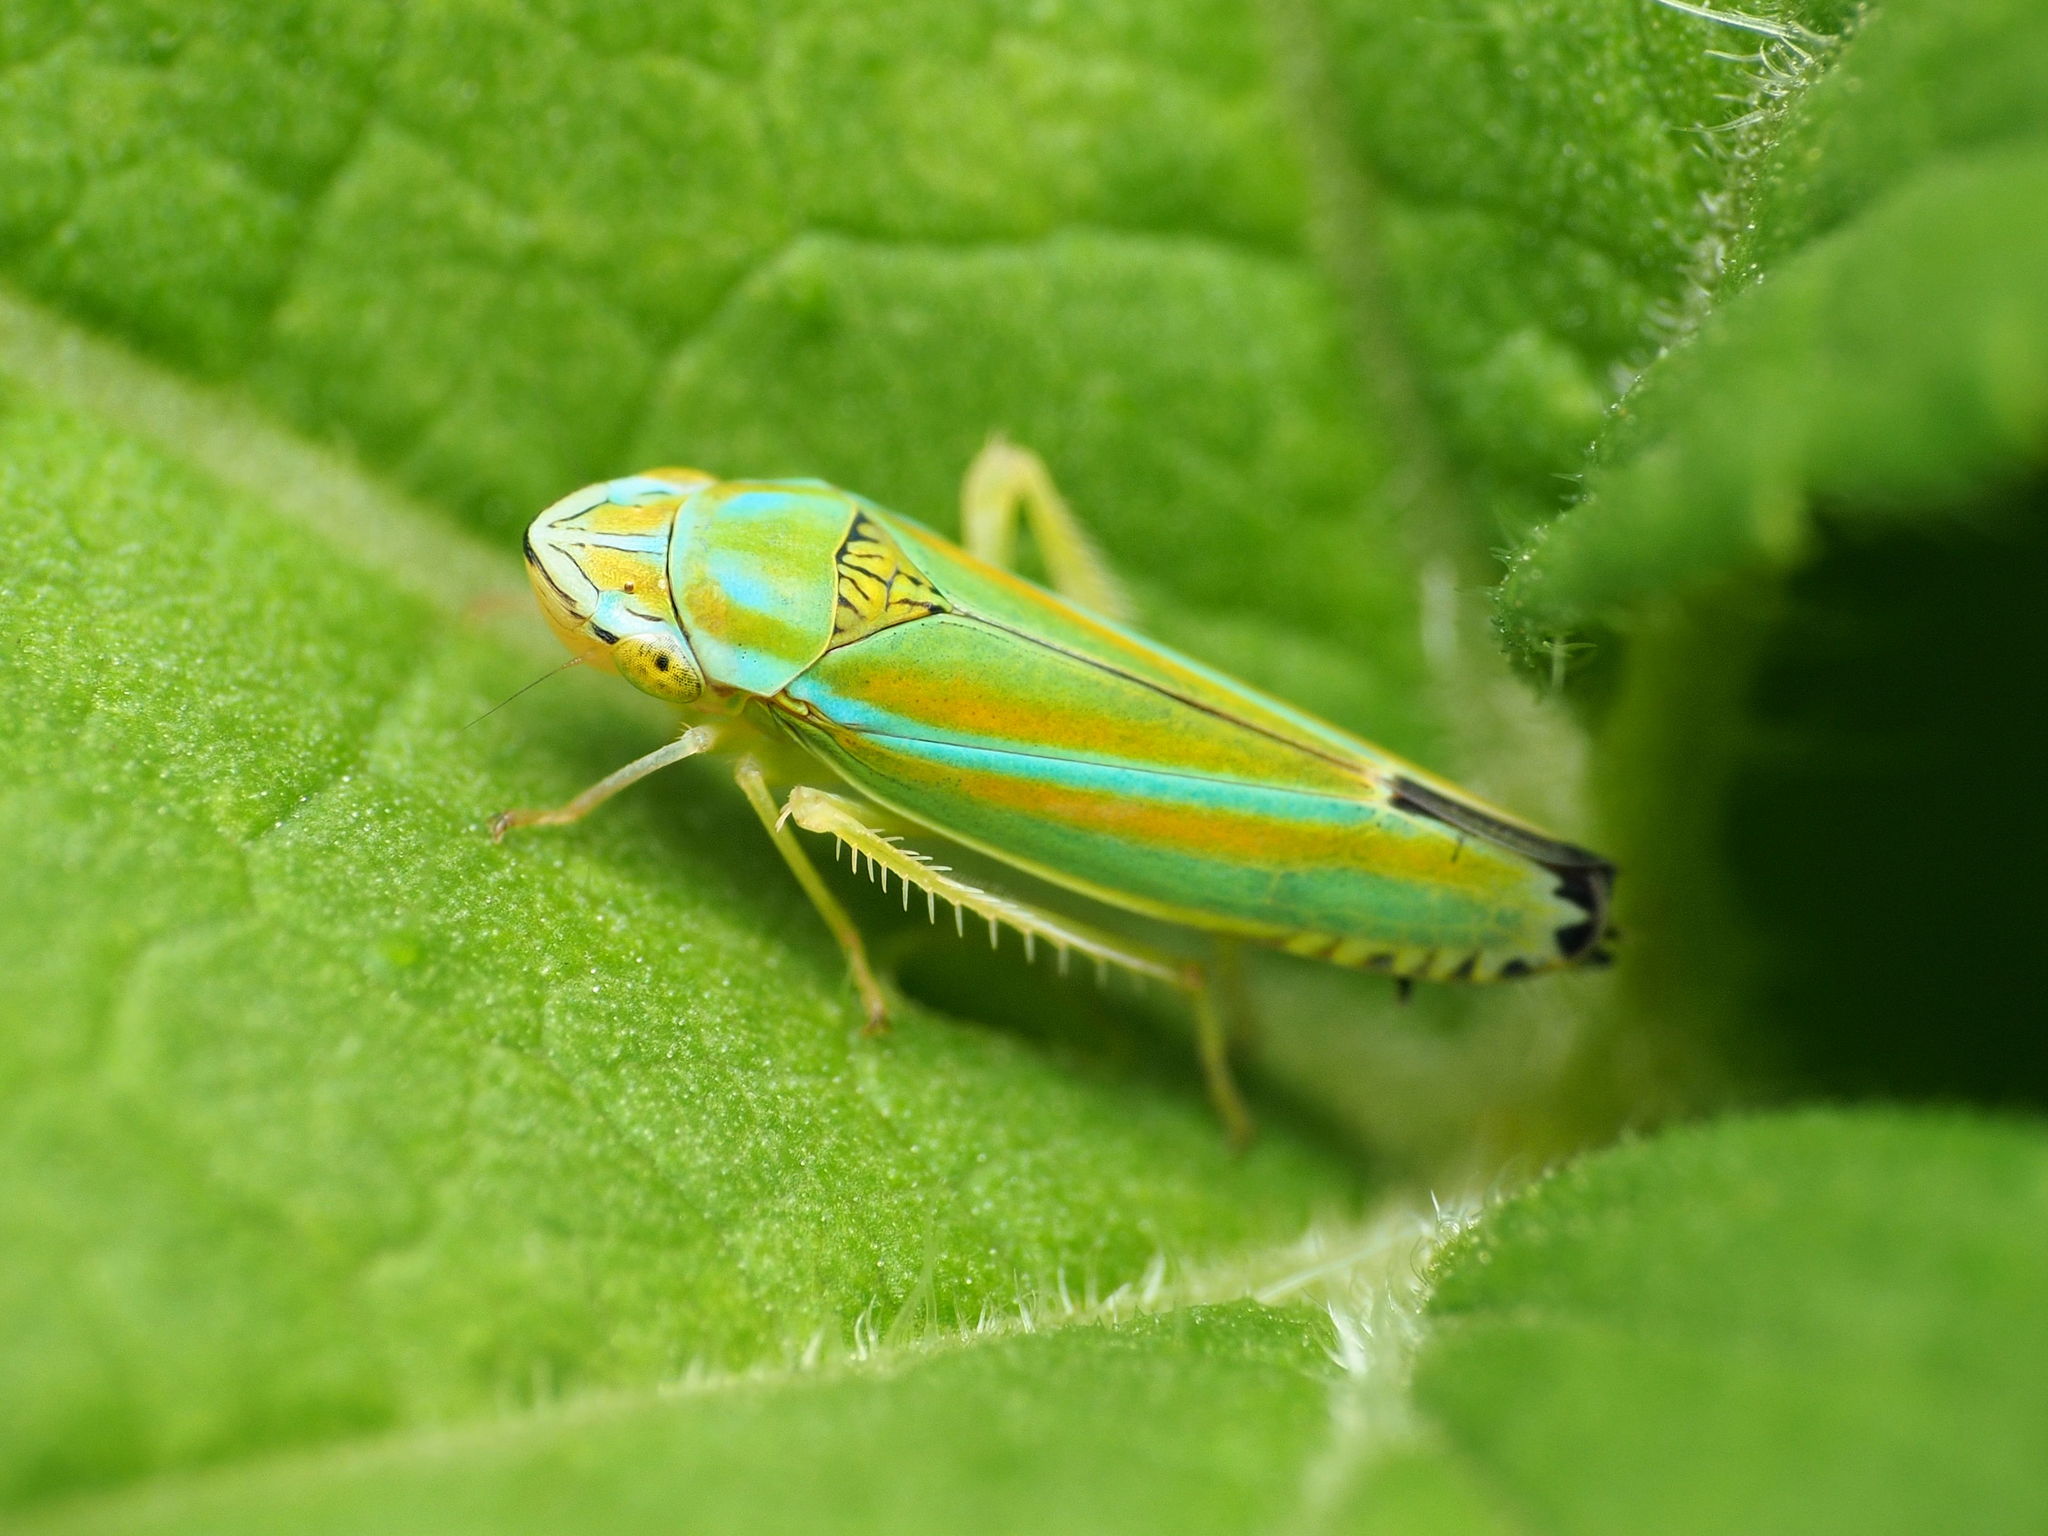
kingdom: Animalia
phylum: Arthropoda
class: Insecta
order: Hemiptera
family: Cicadellidae
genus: Graphocephala
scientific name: Graphocephala versuta
